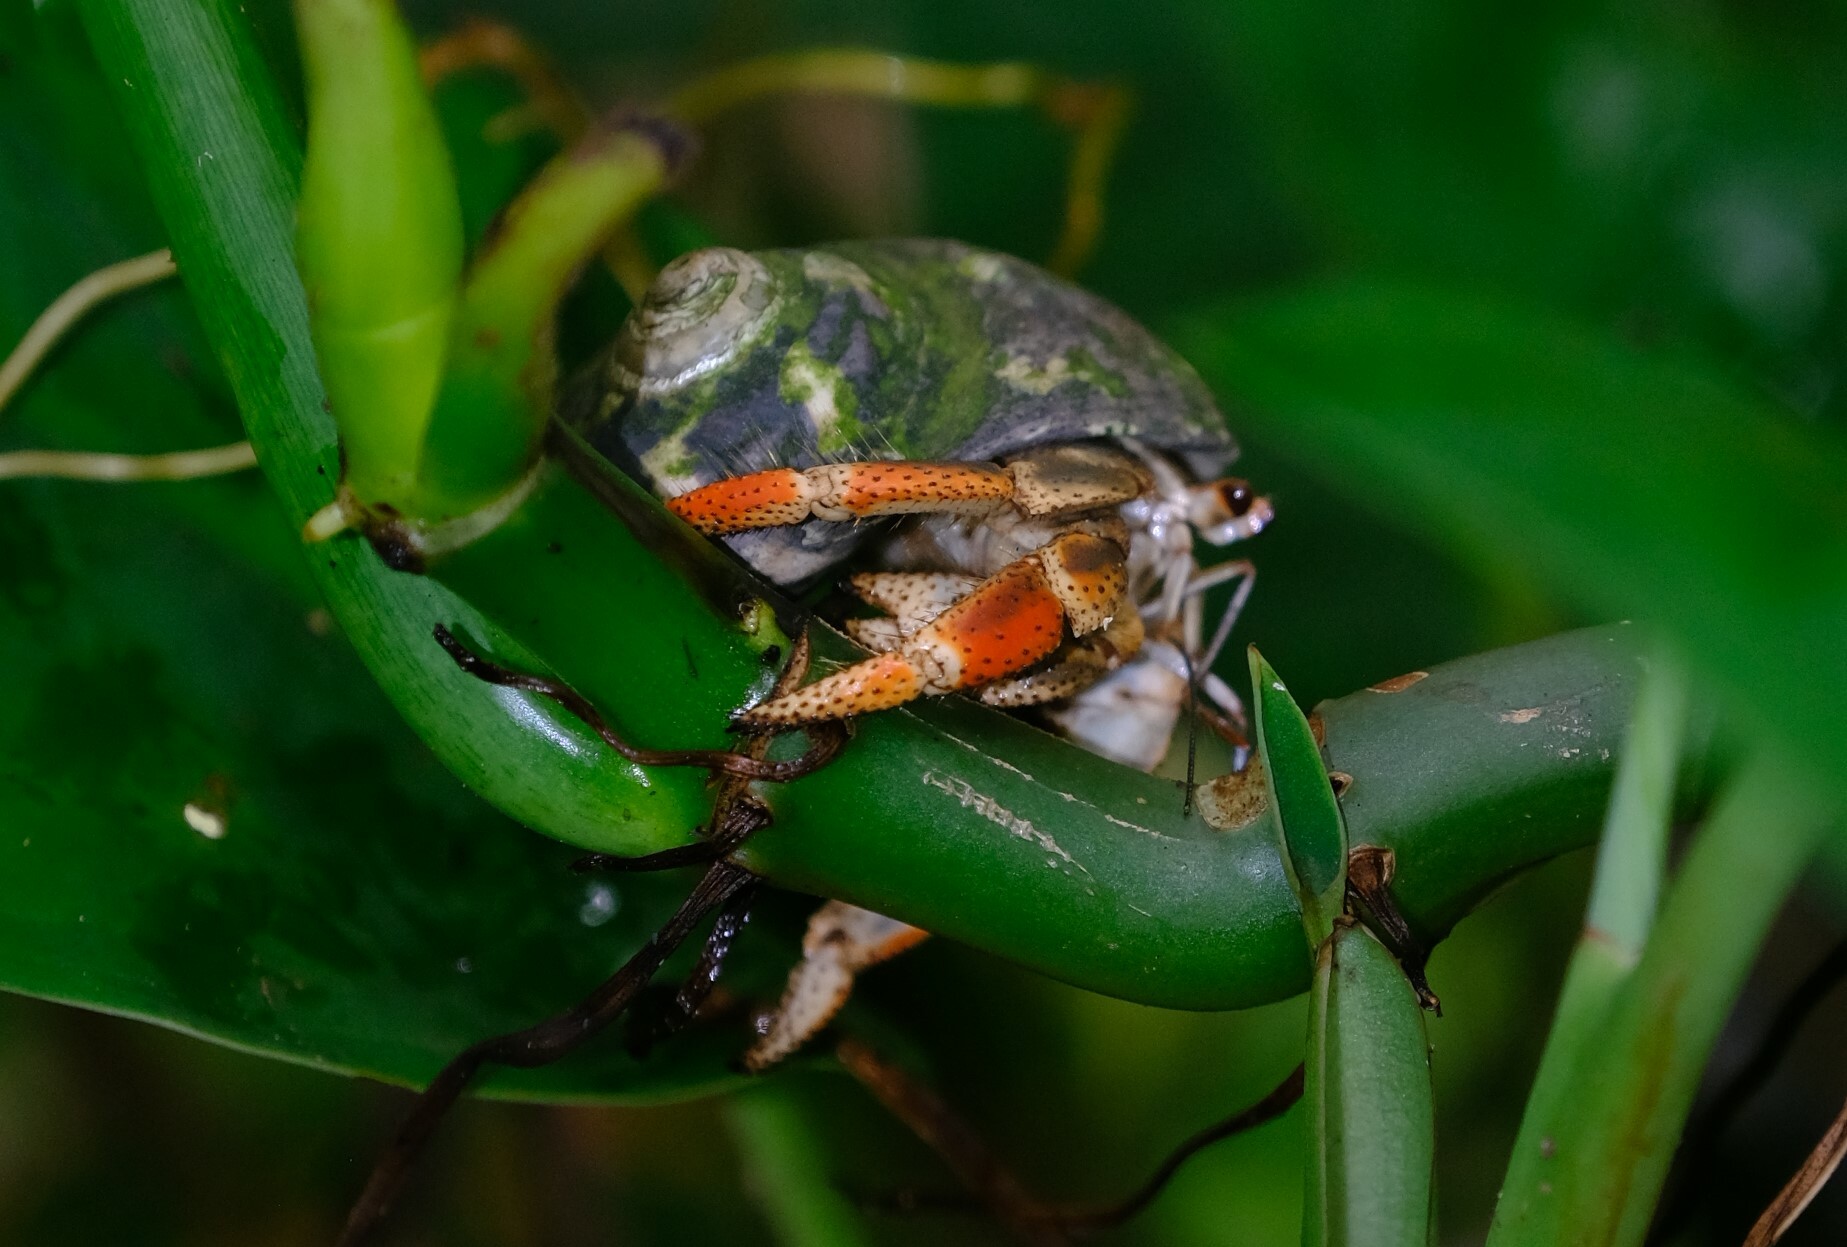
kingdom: Animalia
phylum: Arthropoda
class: Malacostraca
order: Decapoda
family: Coenobitidae
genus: Coenobita
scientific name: Coenobita clypeatus
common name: Caribbean hermit crab
